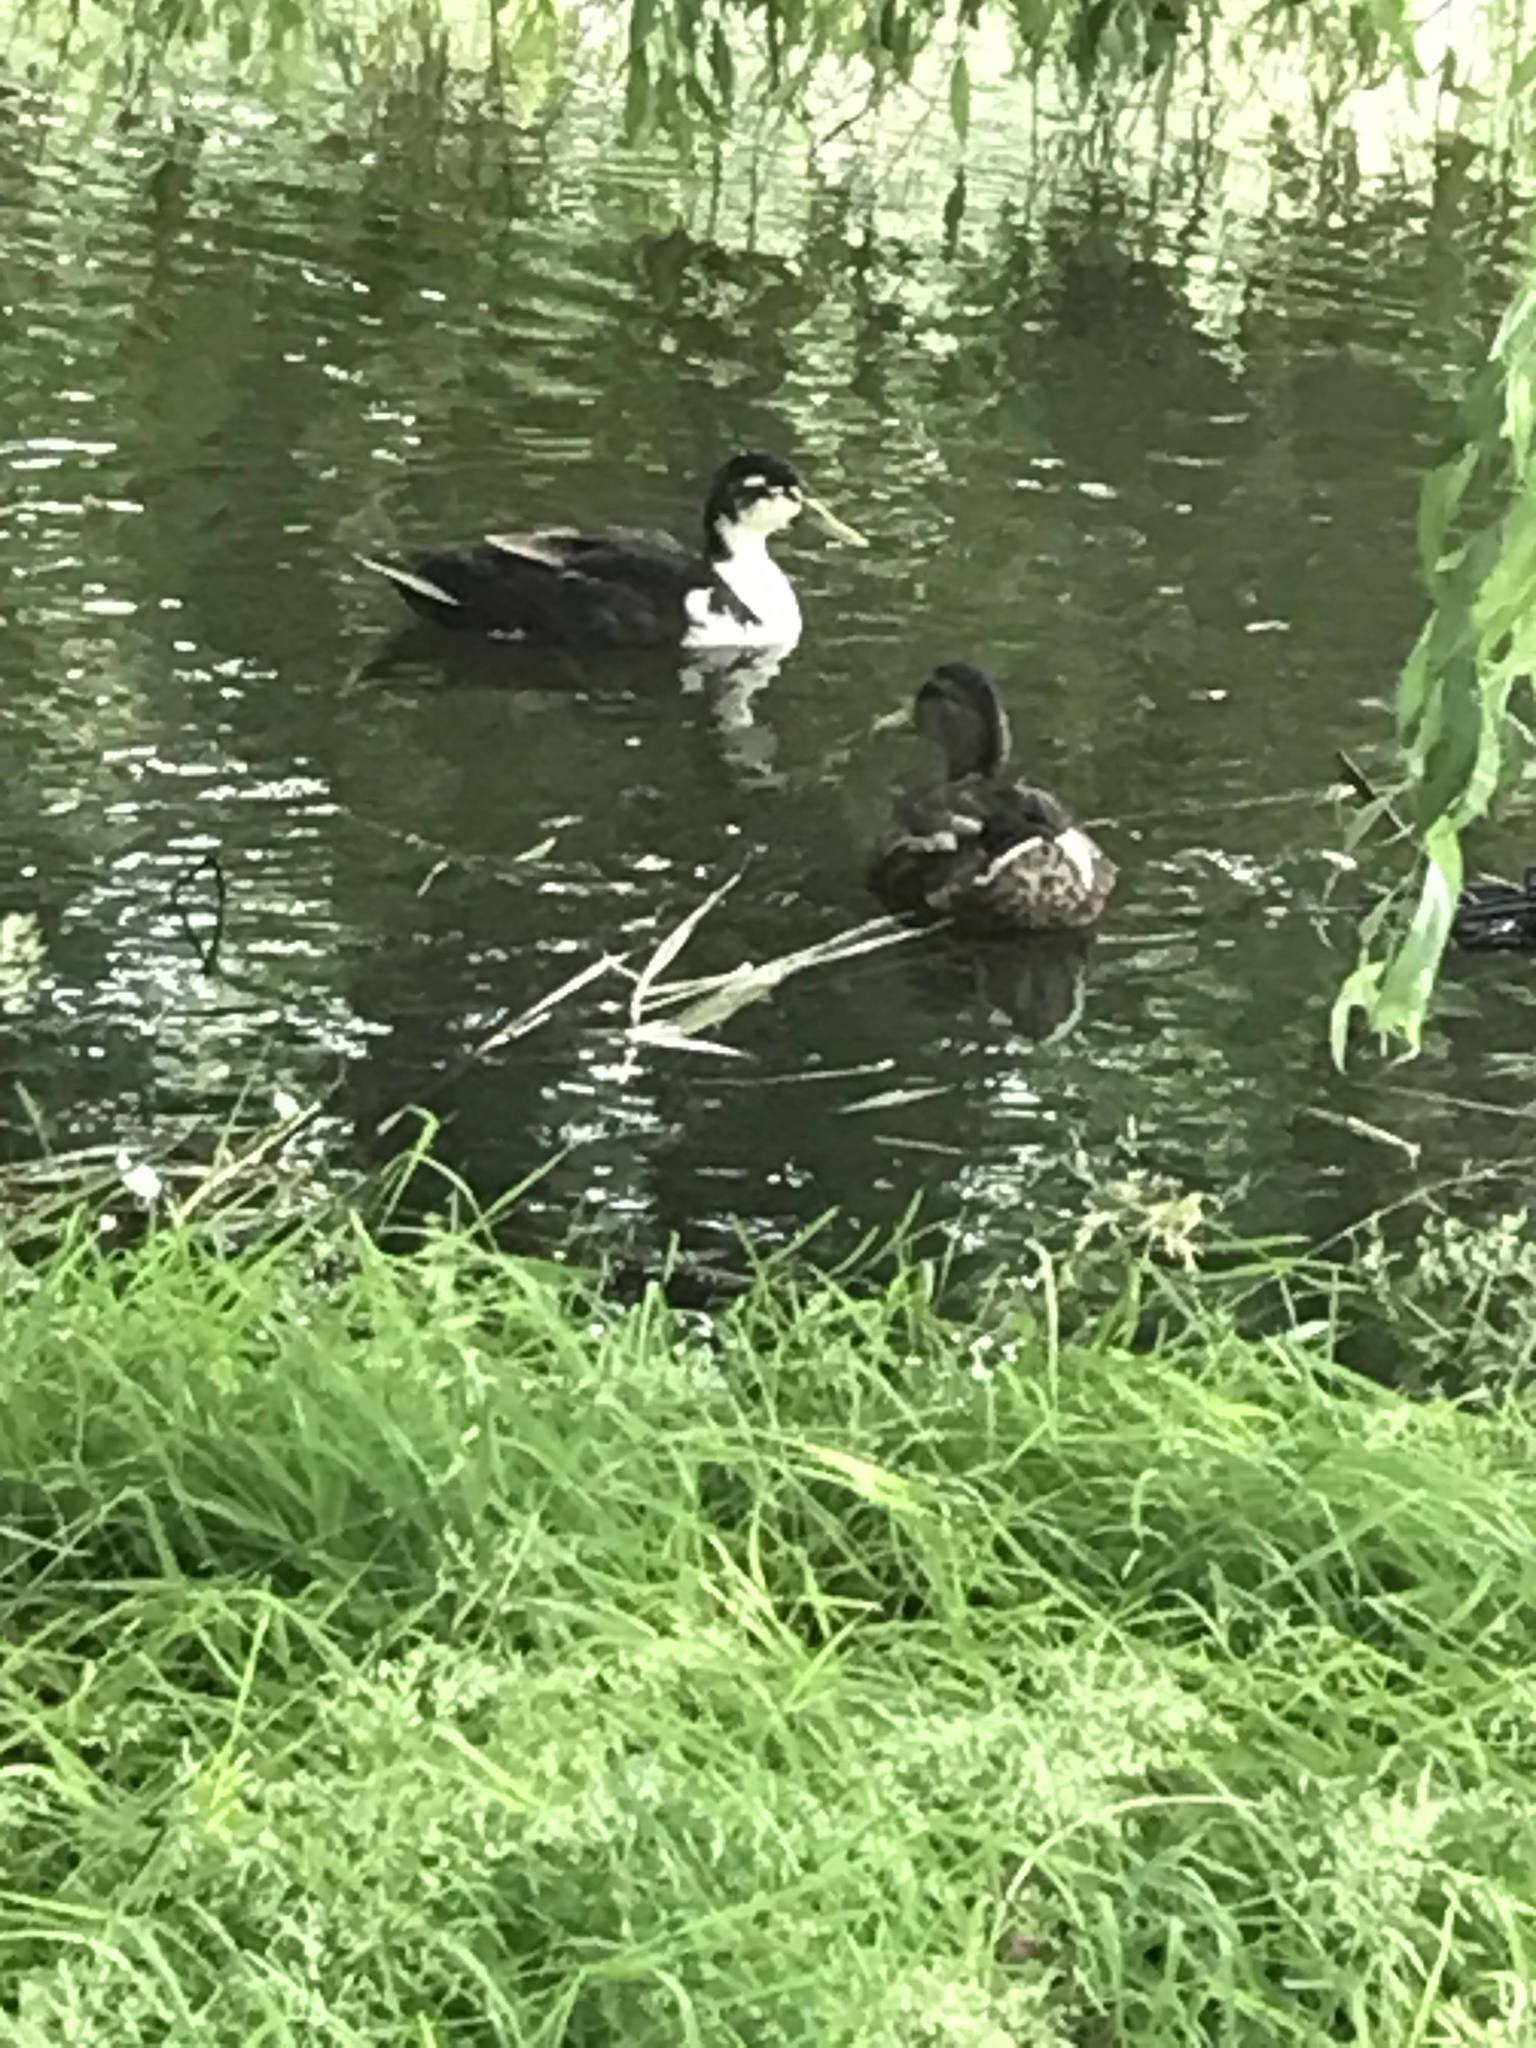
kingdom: Animalia
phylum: Chordata
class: Aves
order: Anseriformes
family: Anatidae
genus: Anas
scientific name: Anas platyrhynchos
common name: Mallard
